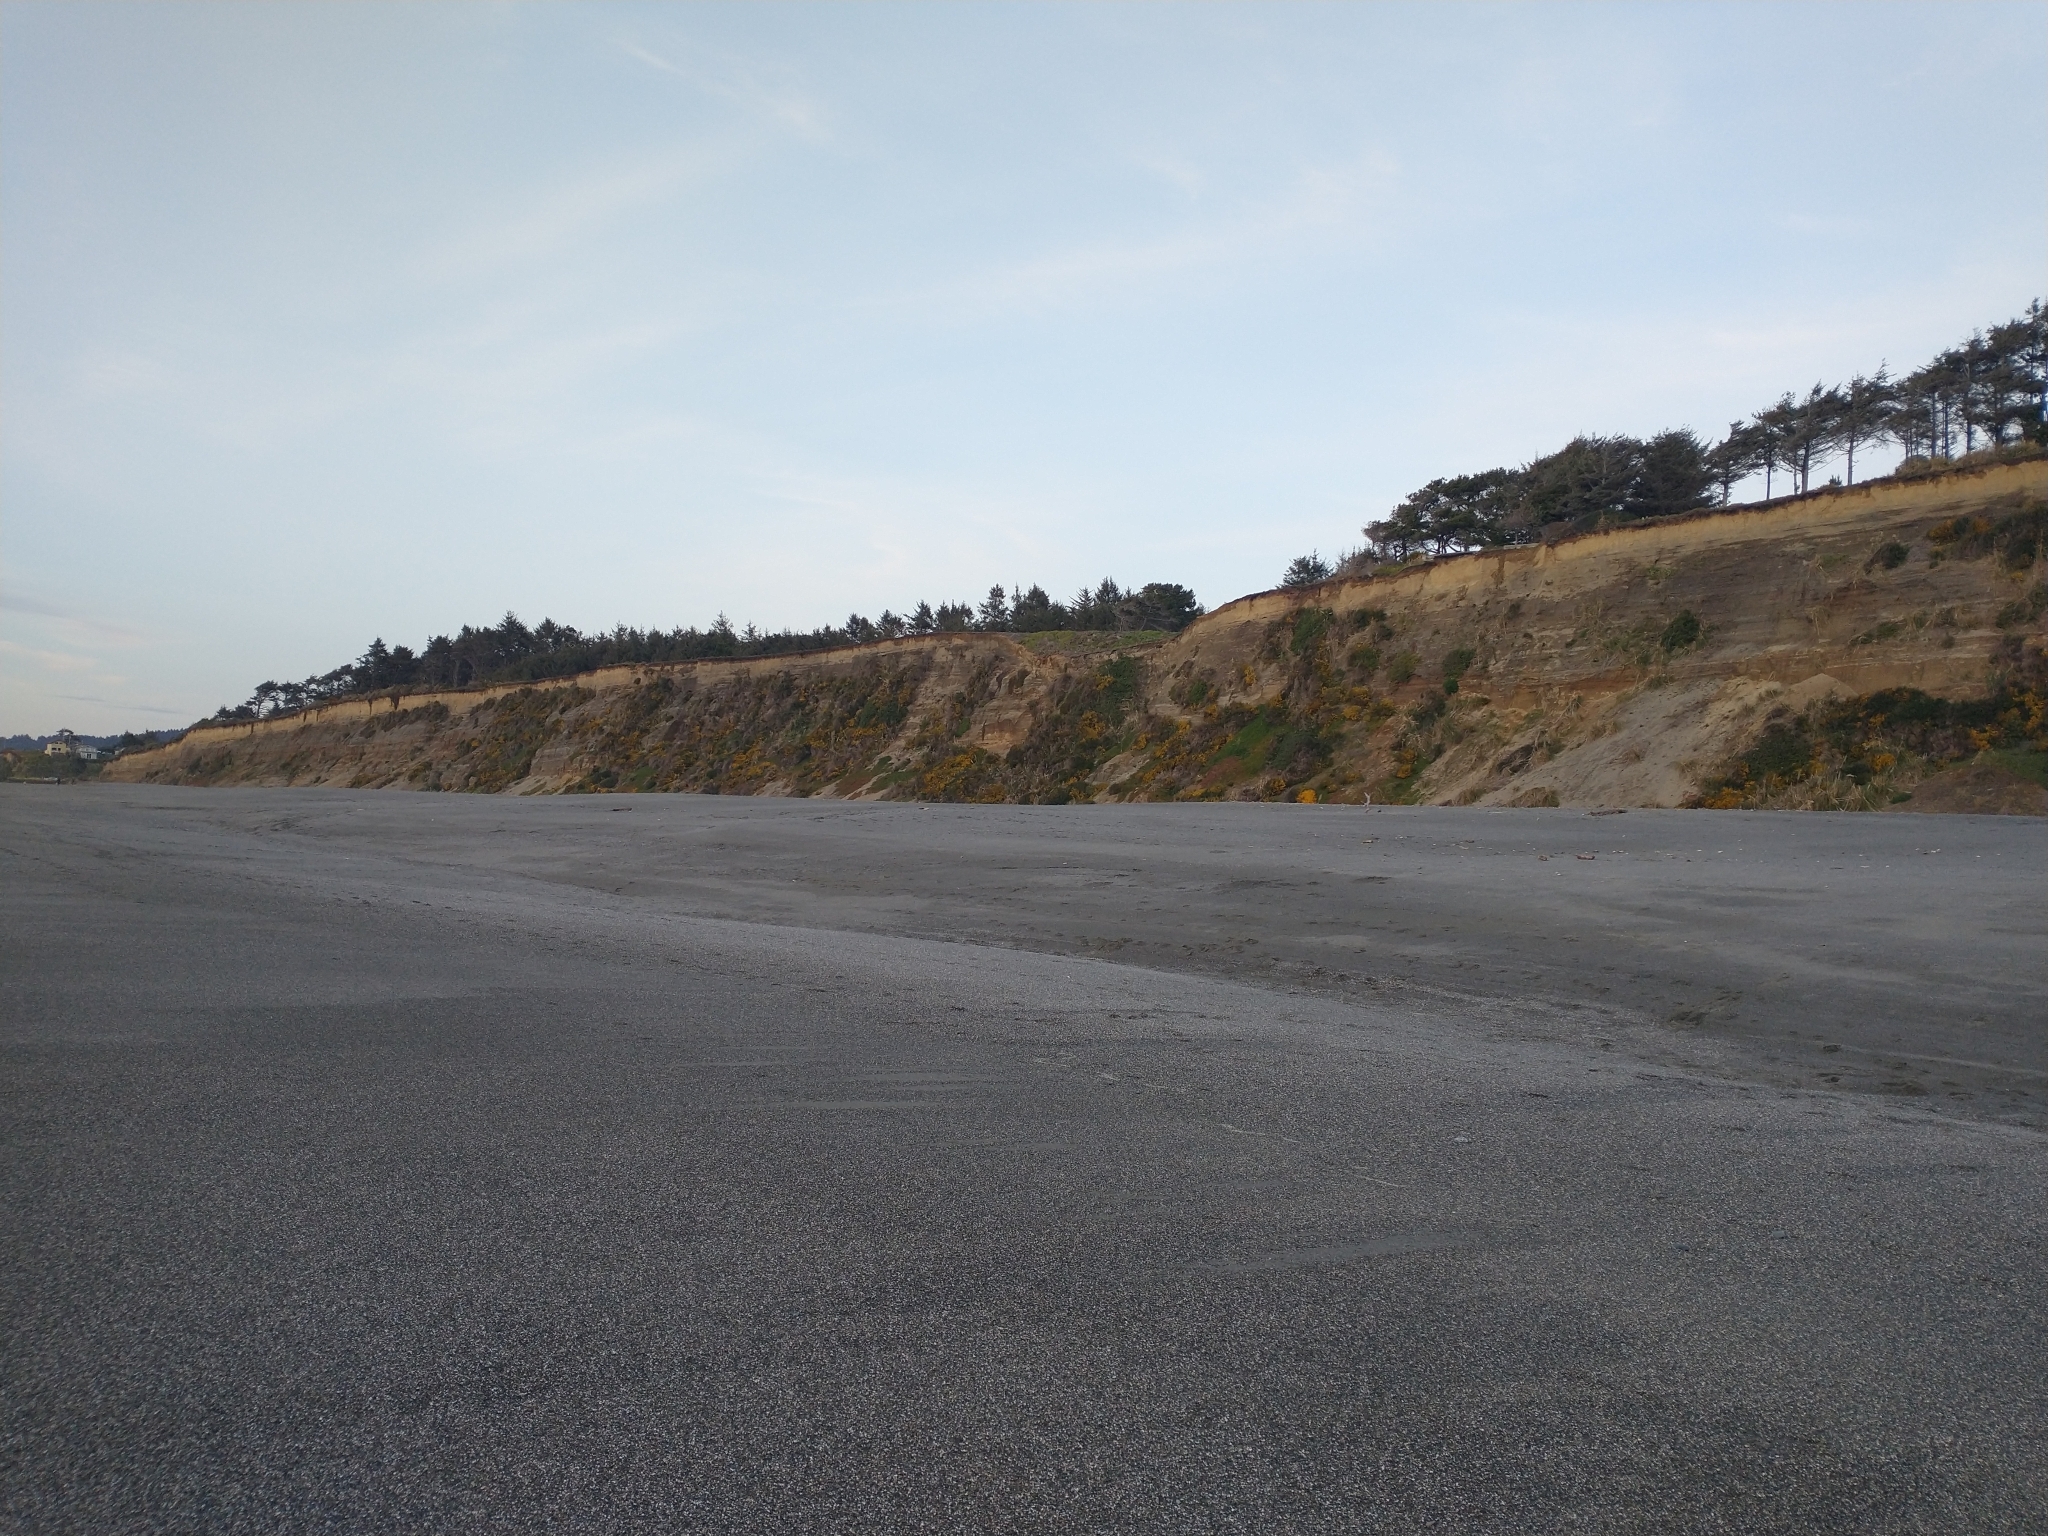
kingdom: Plantae
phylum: Tracheophyta
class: Magnoliopsida
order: Fabales
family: Fabaceae
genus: Cytisus
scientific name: Cytisus scoparius
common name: Scotch broom
